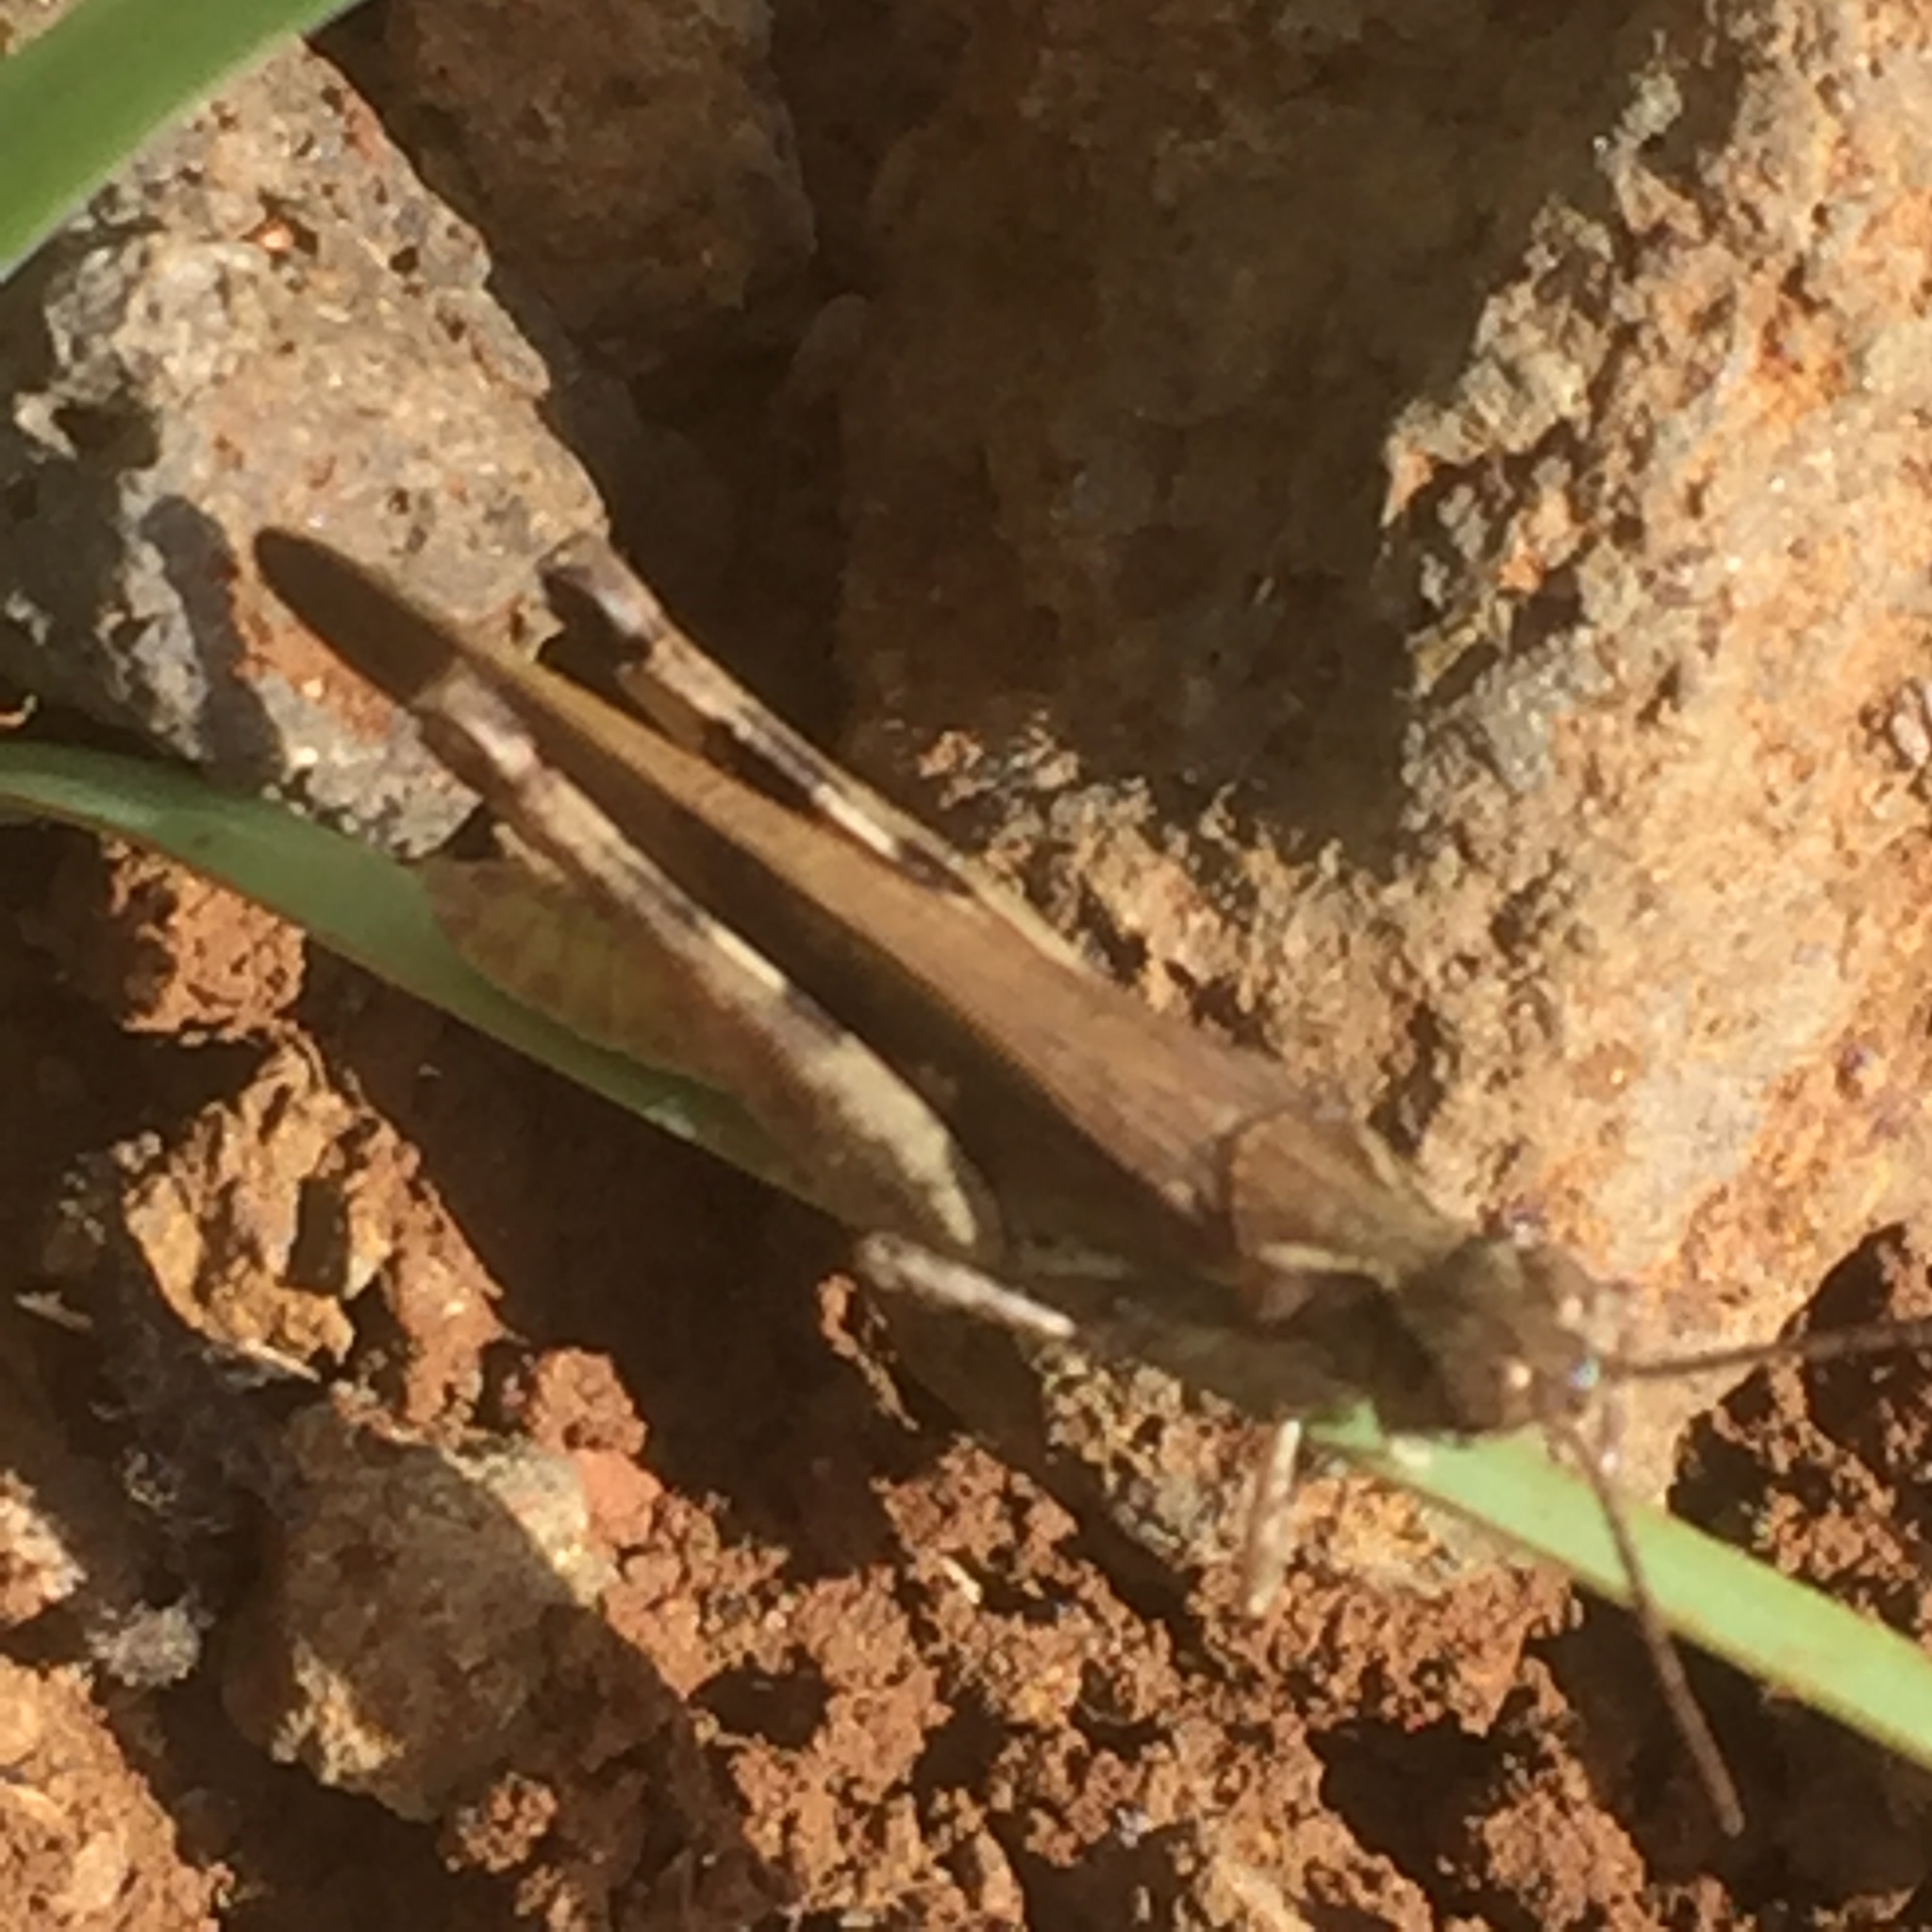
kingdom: Animalia
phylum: Arthropoda
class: Insecta
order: Orthoptera
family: Acrididae
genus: Aiolopus
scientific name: Aiolopus thalassinus
